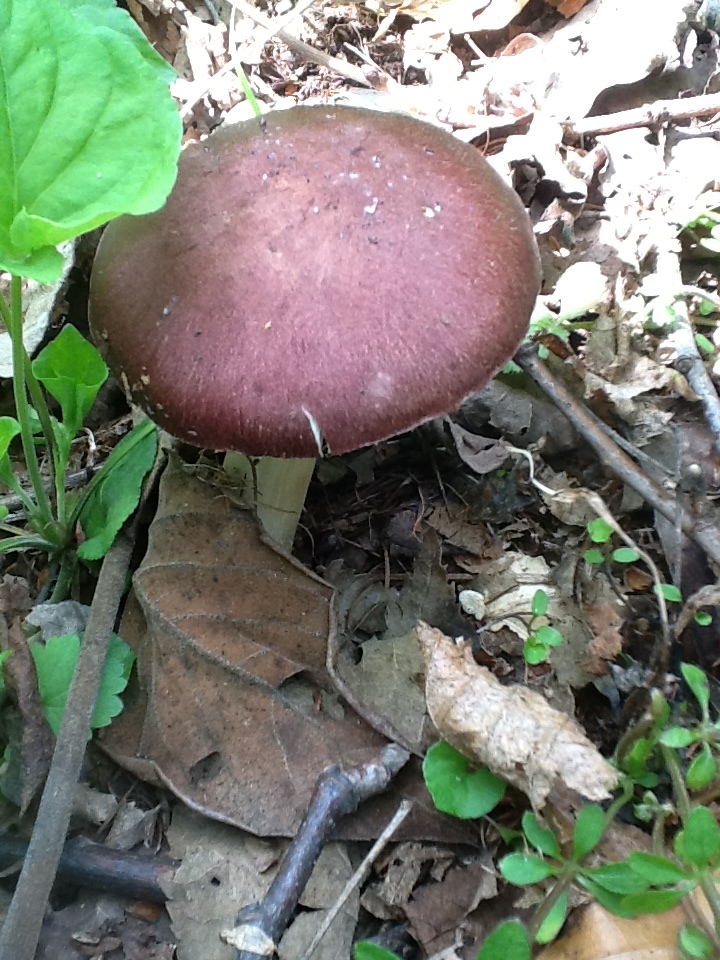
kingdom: Fungi
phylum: Basidiomycota
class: Agaricomycetes
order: Agaricales
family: Strophariaceae
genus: Stropharia
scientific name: Stropharia rugosoannulata
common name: Wine roundhead
